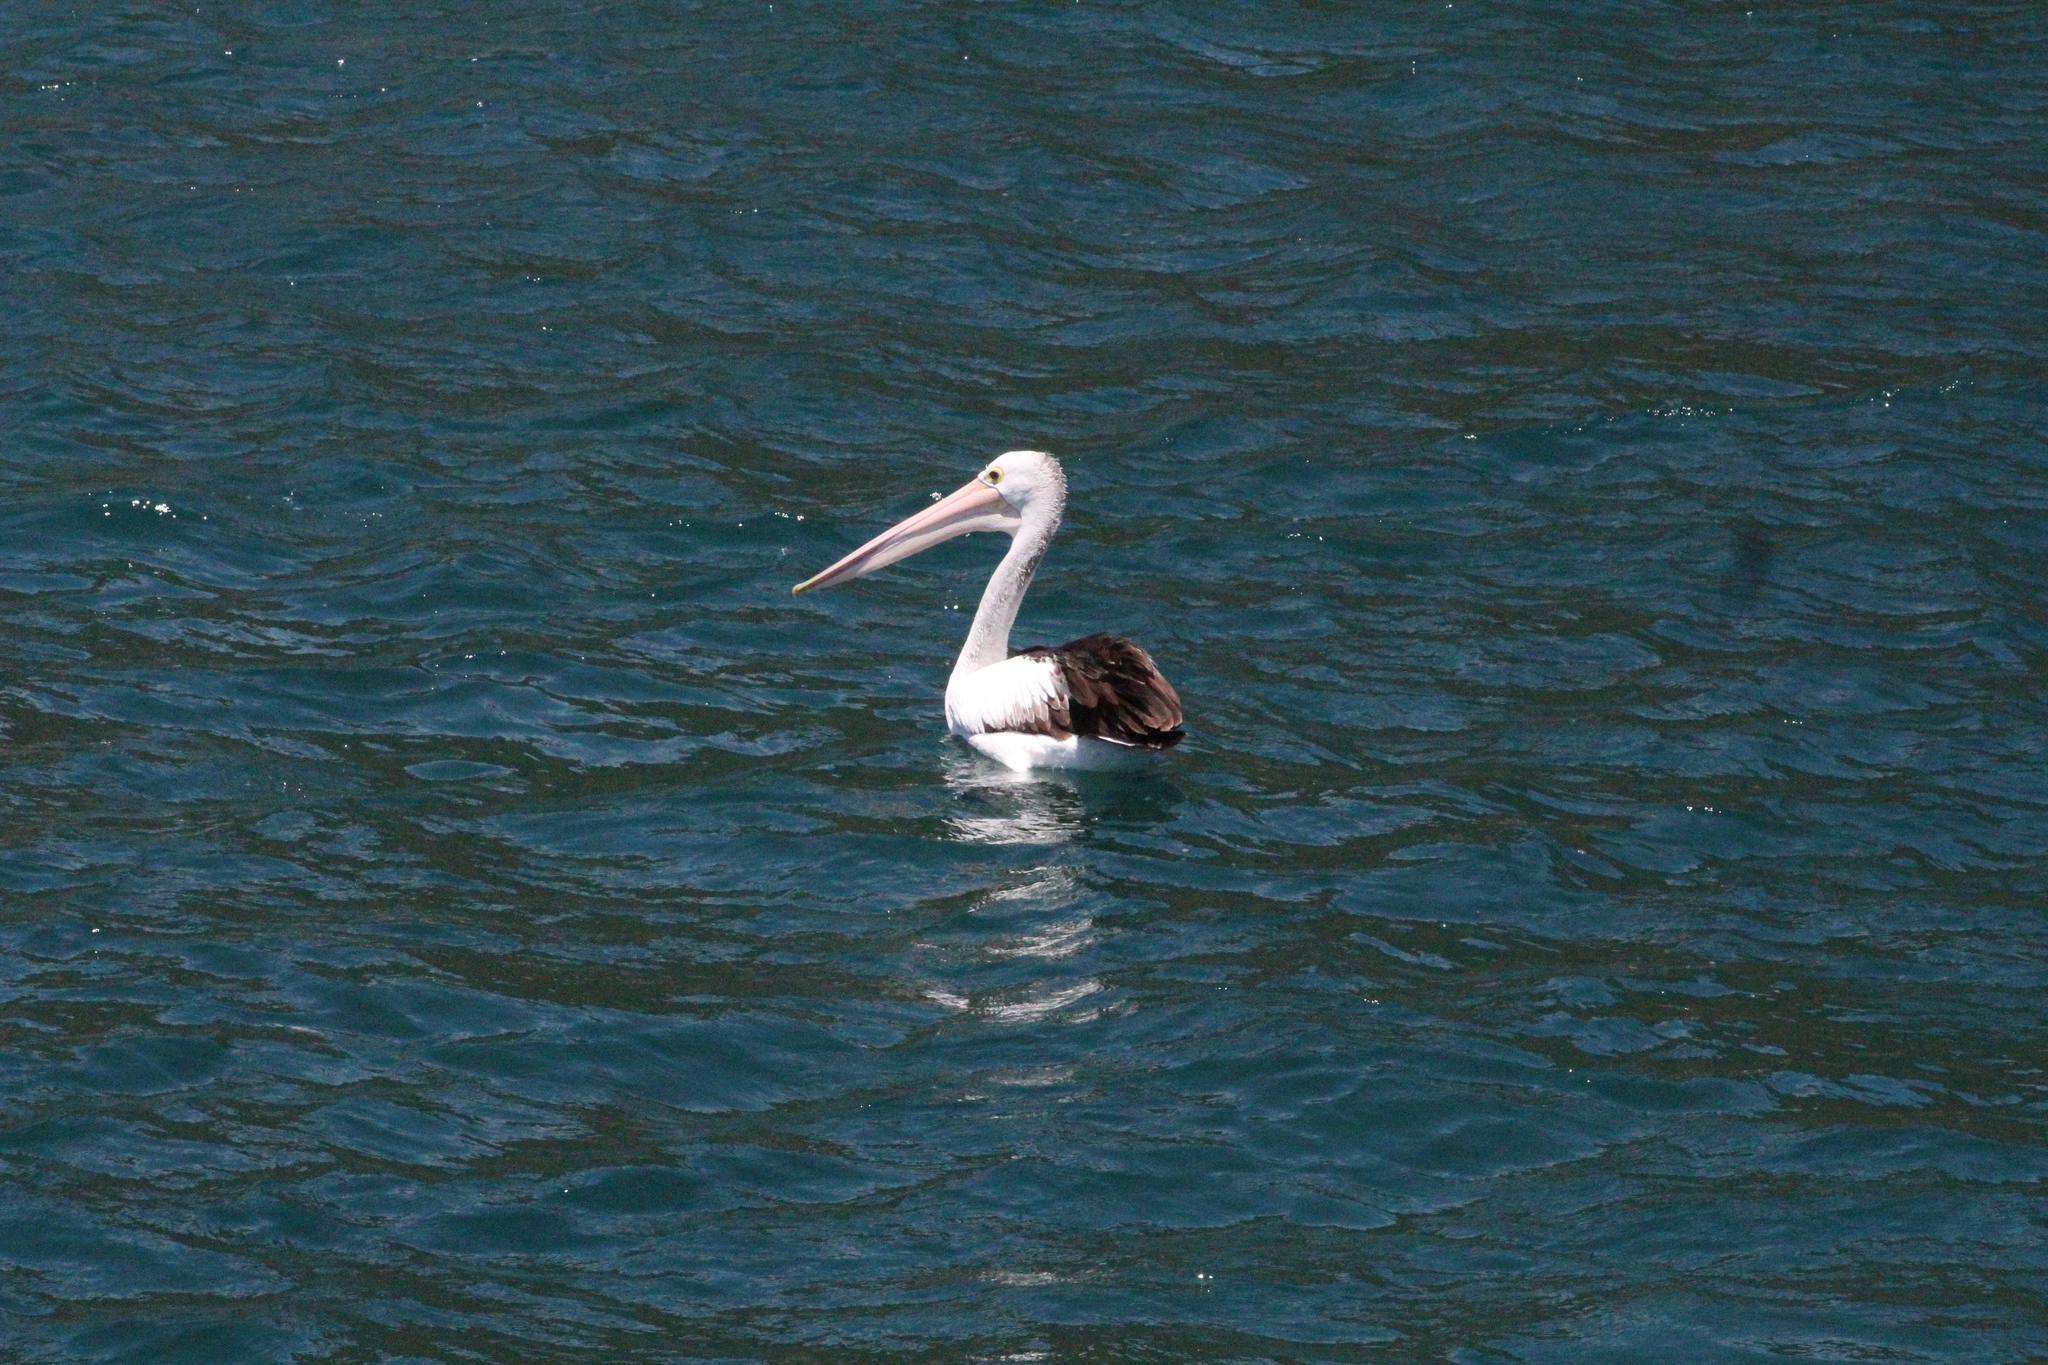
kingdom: Animalia
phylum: Chordata
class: Aves
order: Pelecaniformes
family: Pelecanidae
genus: Pelecanus
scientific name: Pelecanus conspicillatus
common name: Australian pelican
